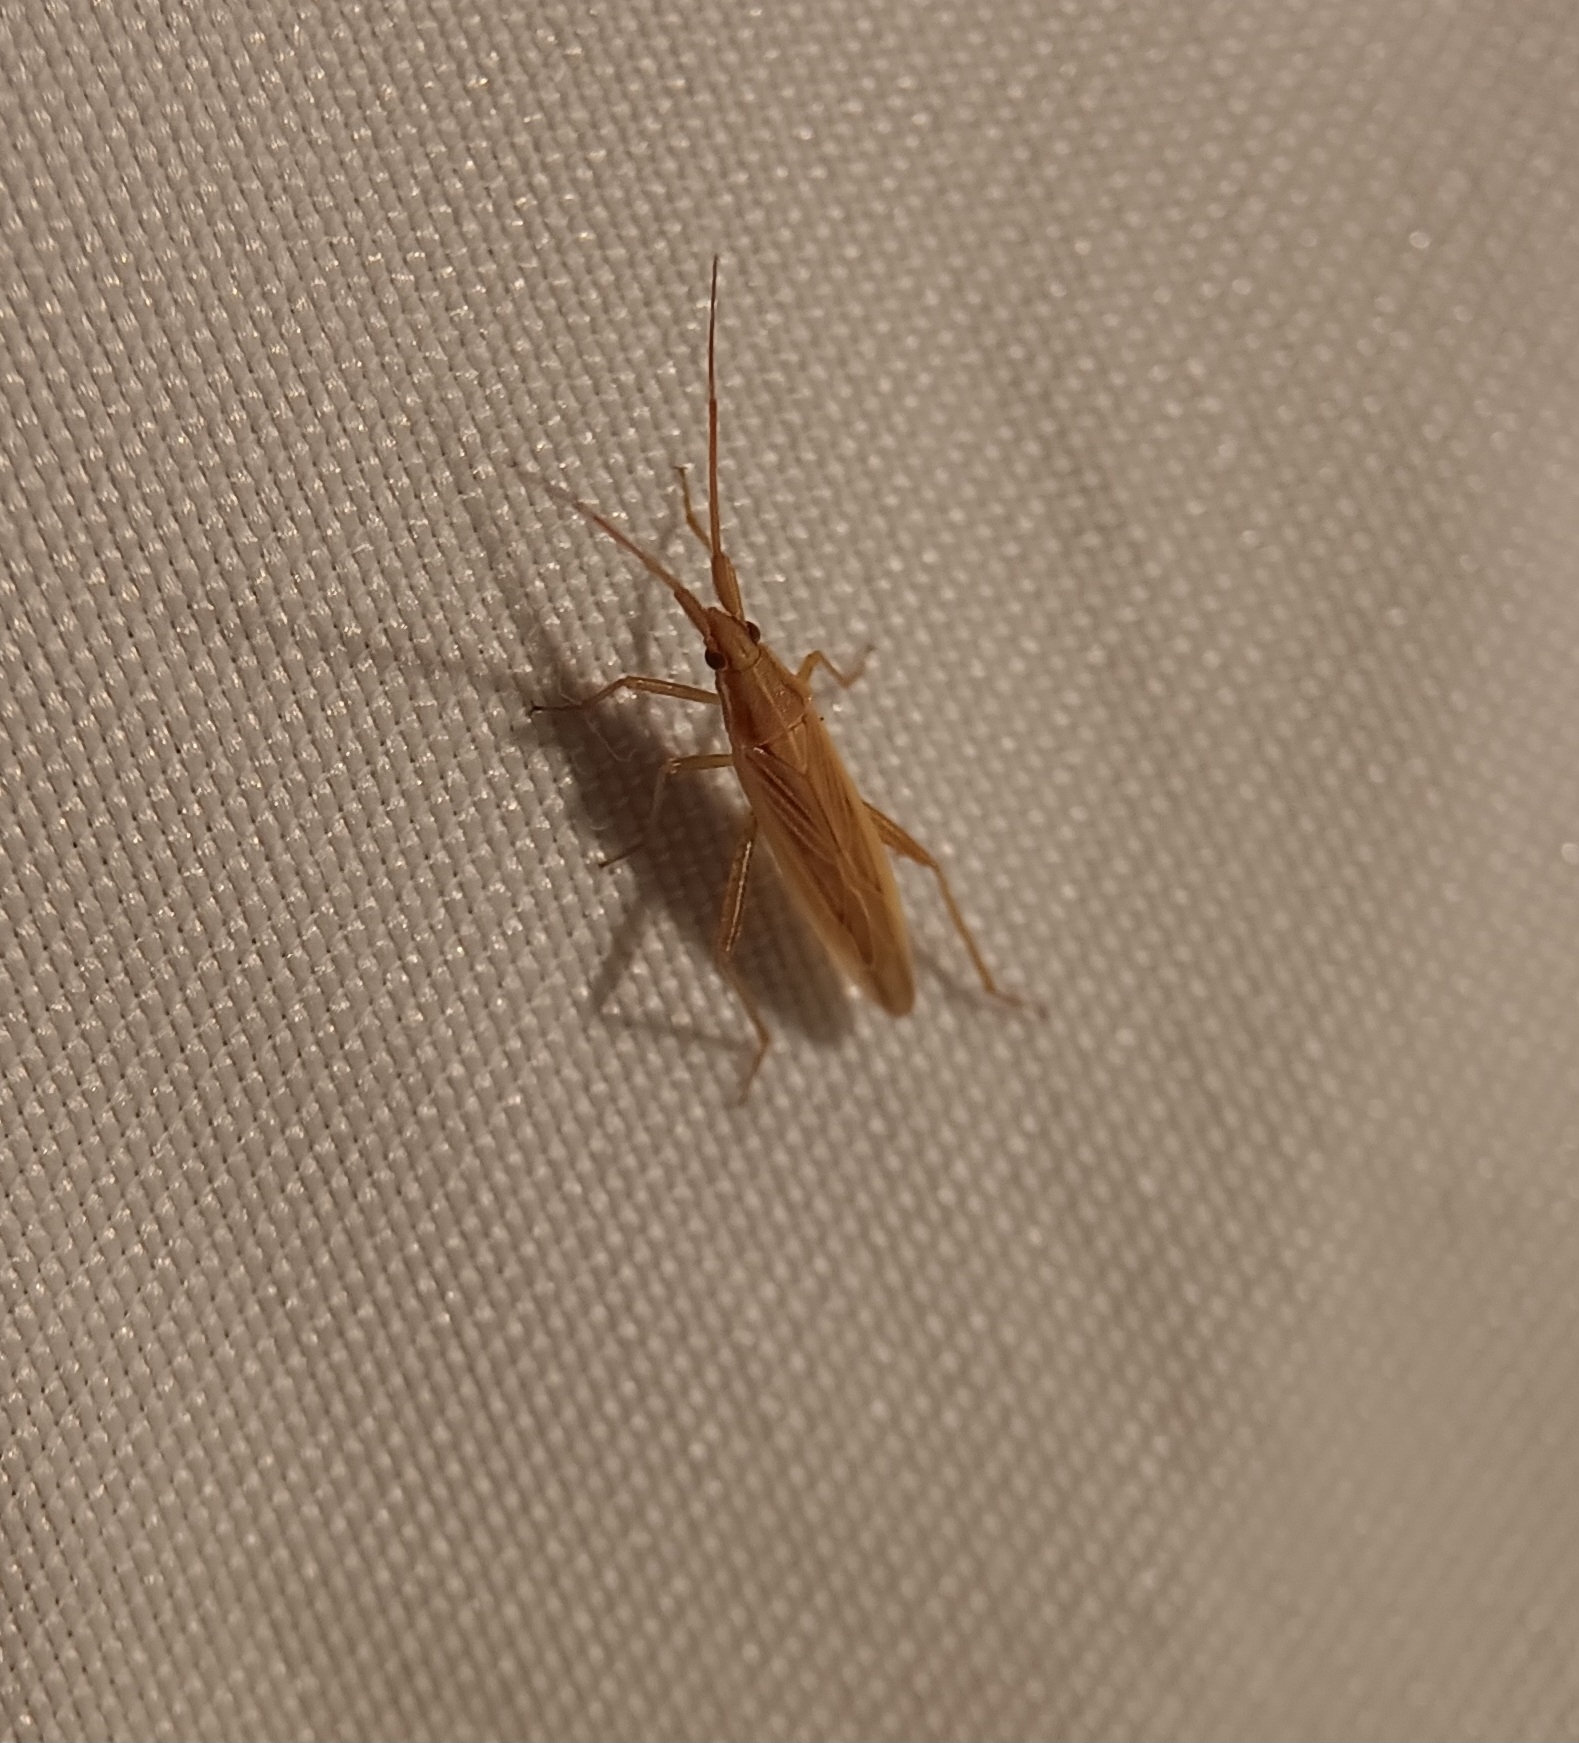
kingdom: Animalia
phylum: Arthropoda
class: Insecta
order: Hemiptera
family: Miridae
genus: Stenodema
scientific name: Stenodema trispinosa
